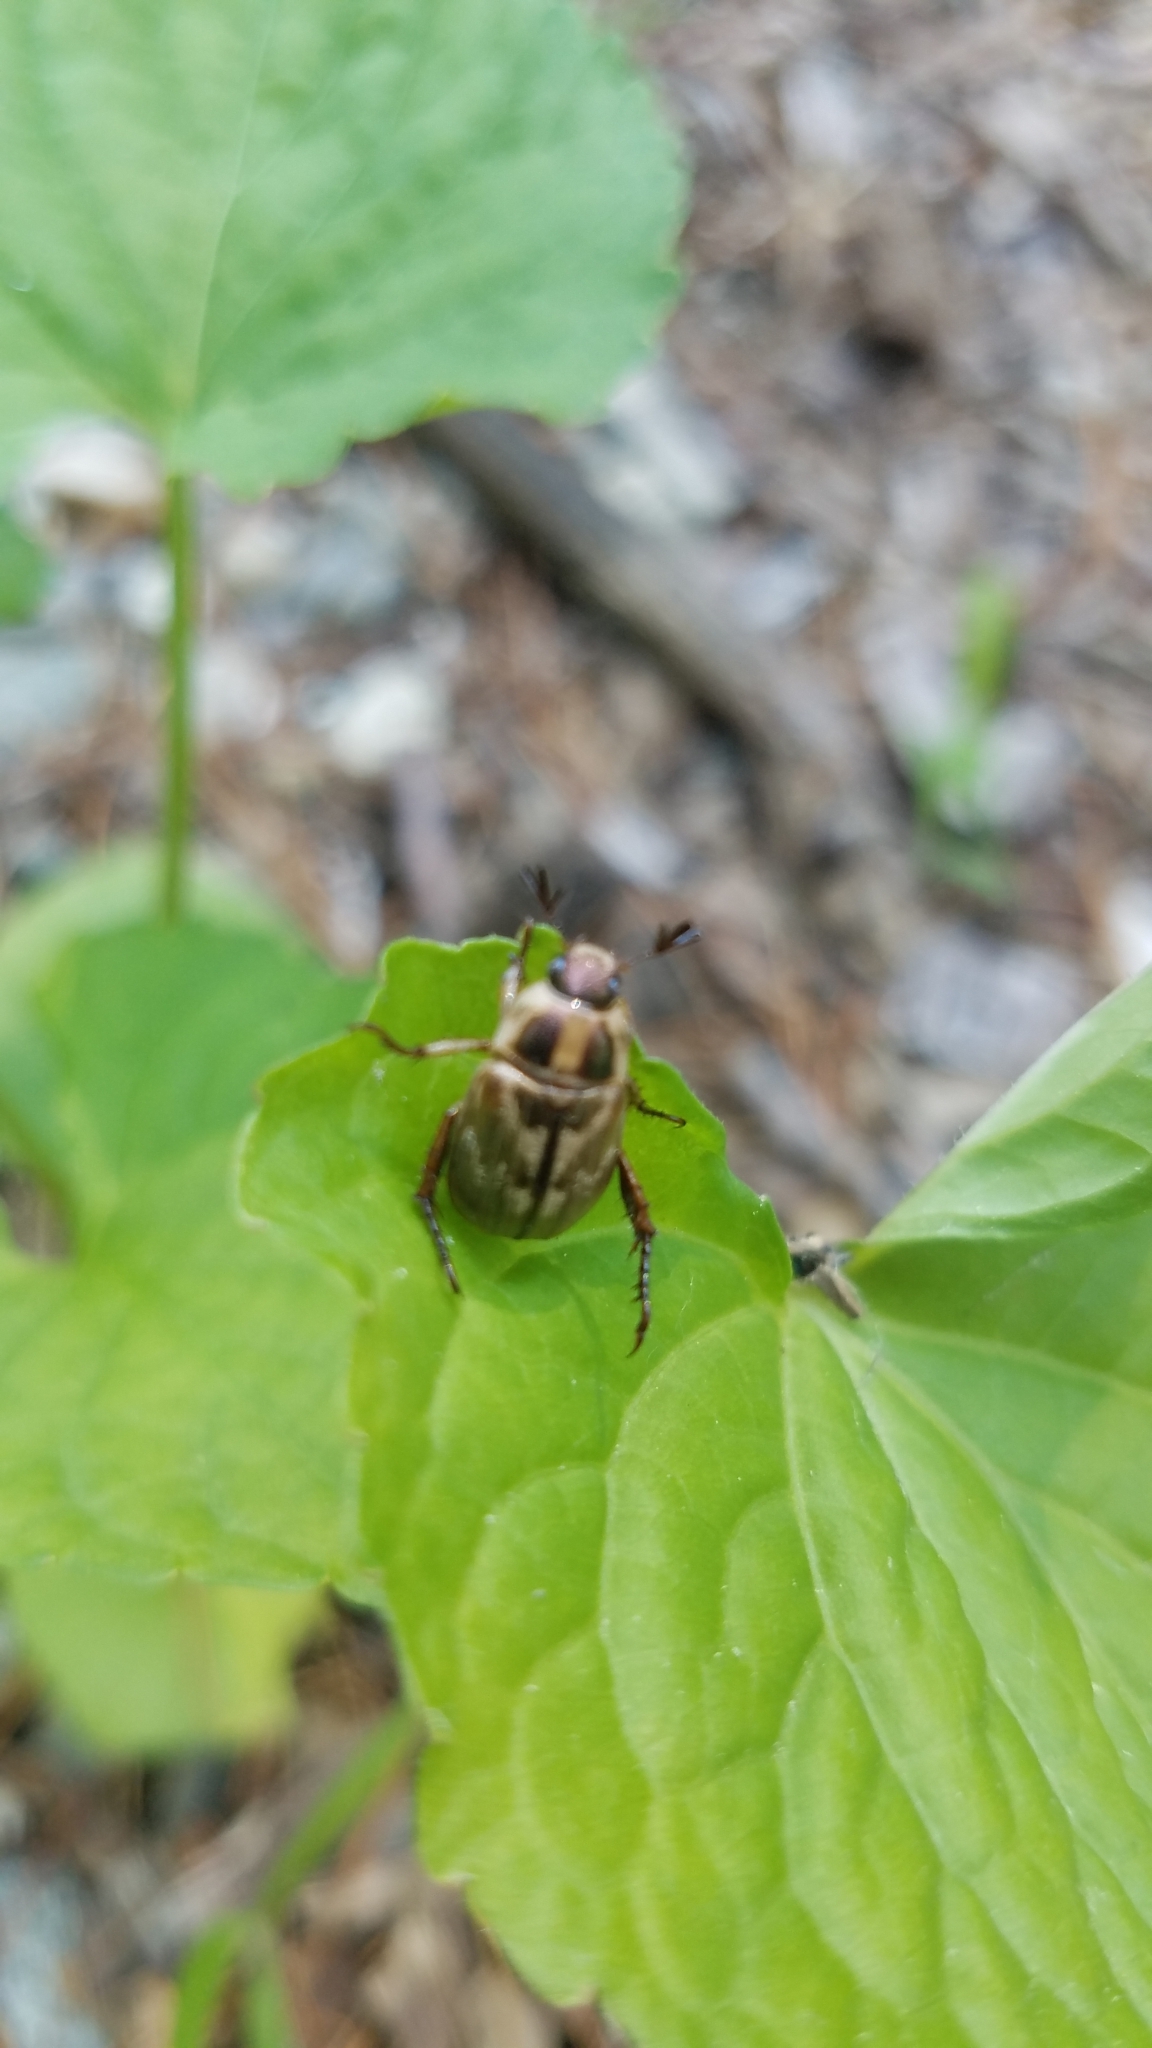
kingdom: Animalia
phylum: Arthropoda
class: Insecta
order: Coleoptera
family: Scarabaeidae
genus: Exomala
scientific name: Exomala orientalis
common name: Oriental beetle
